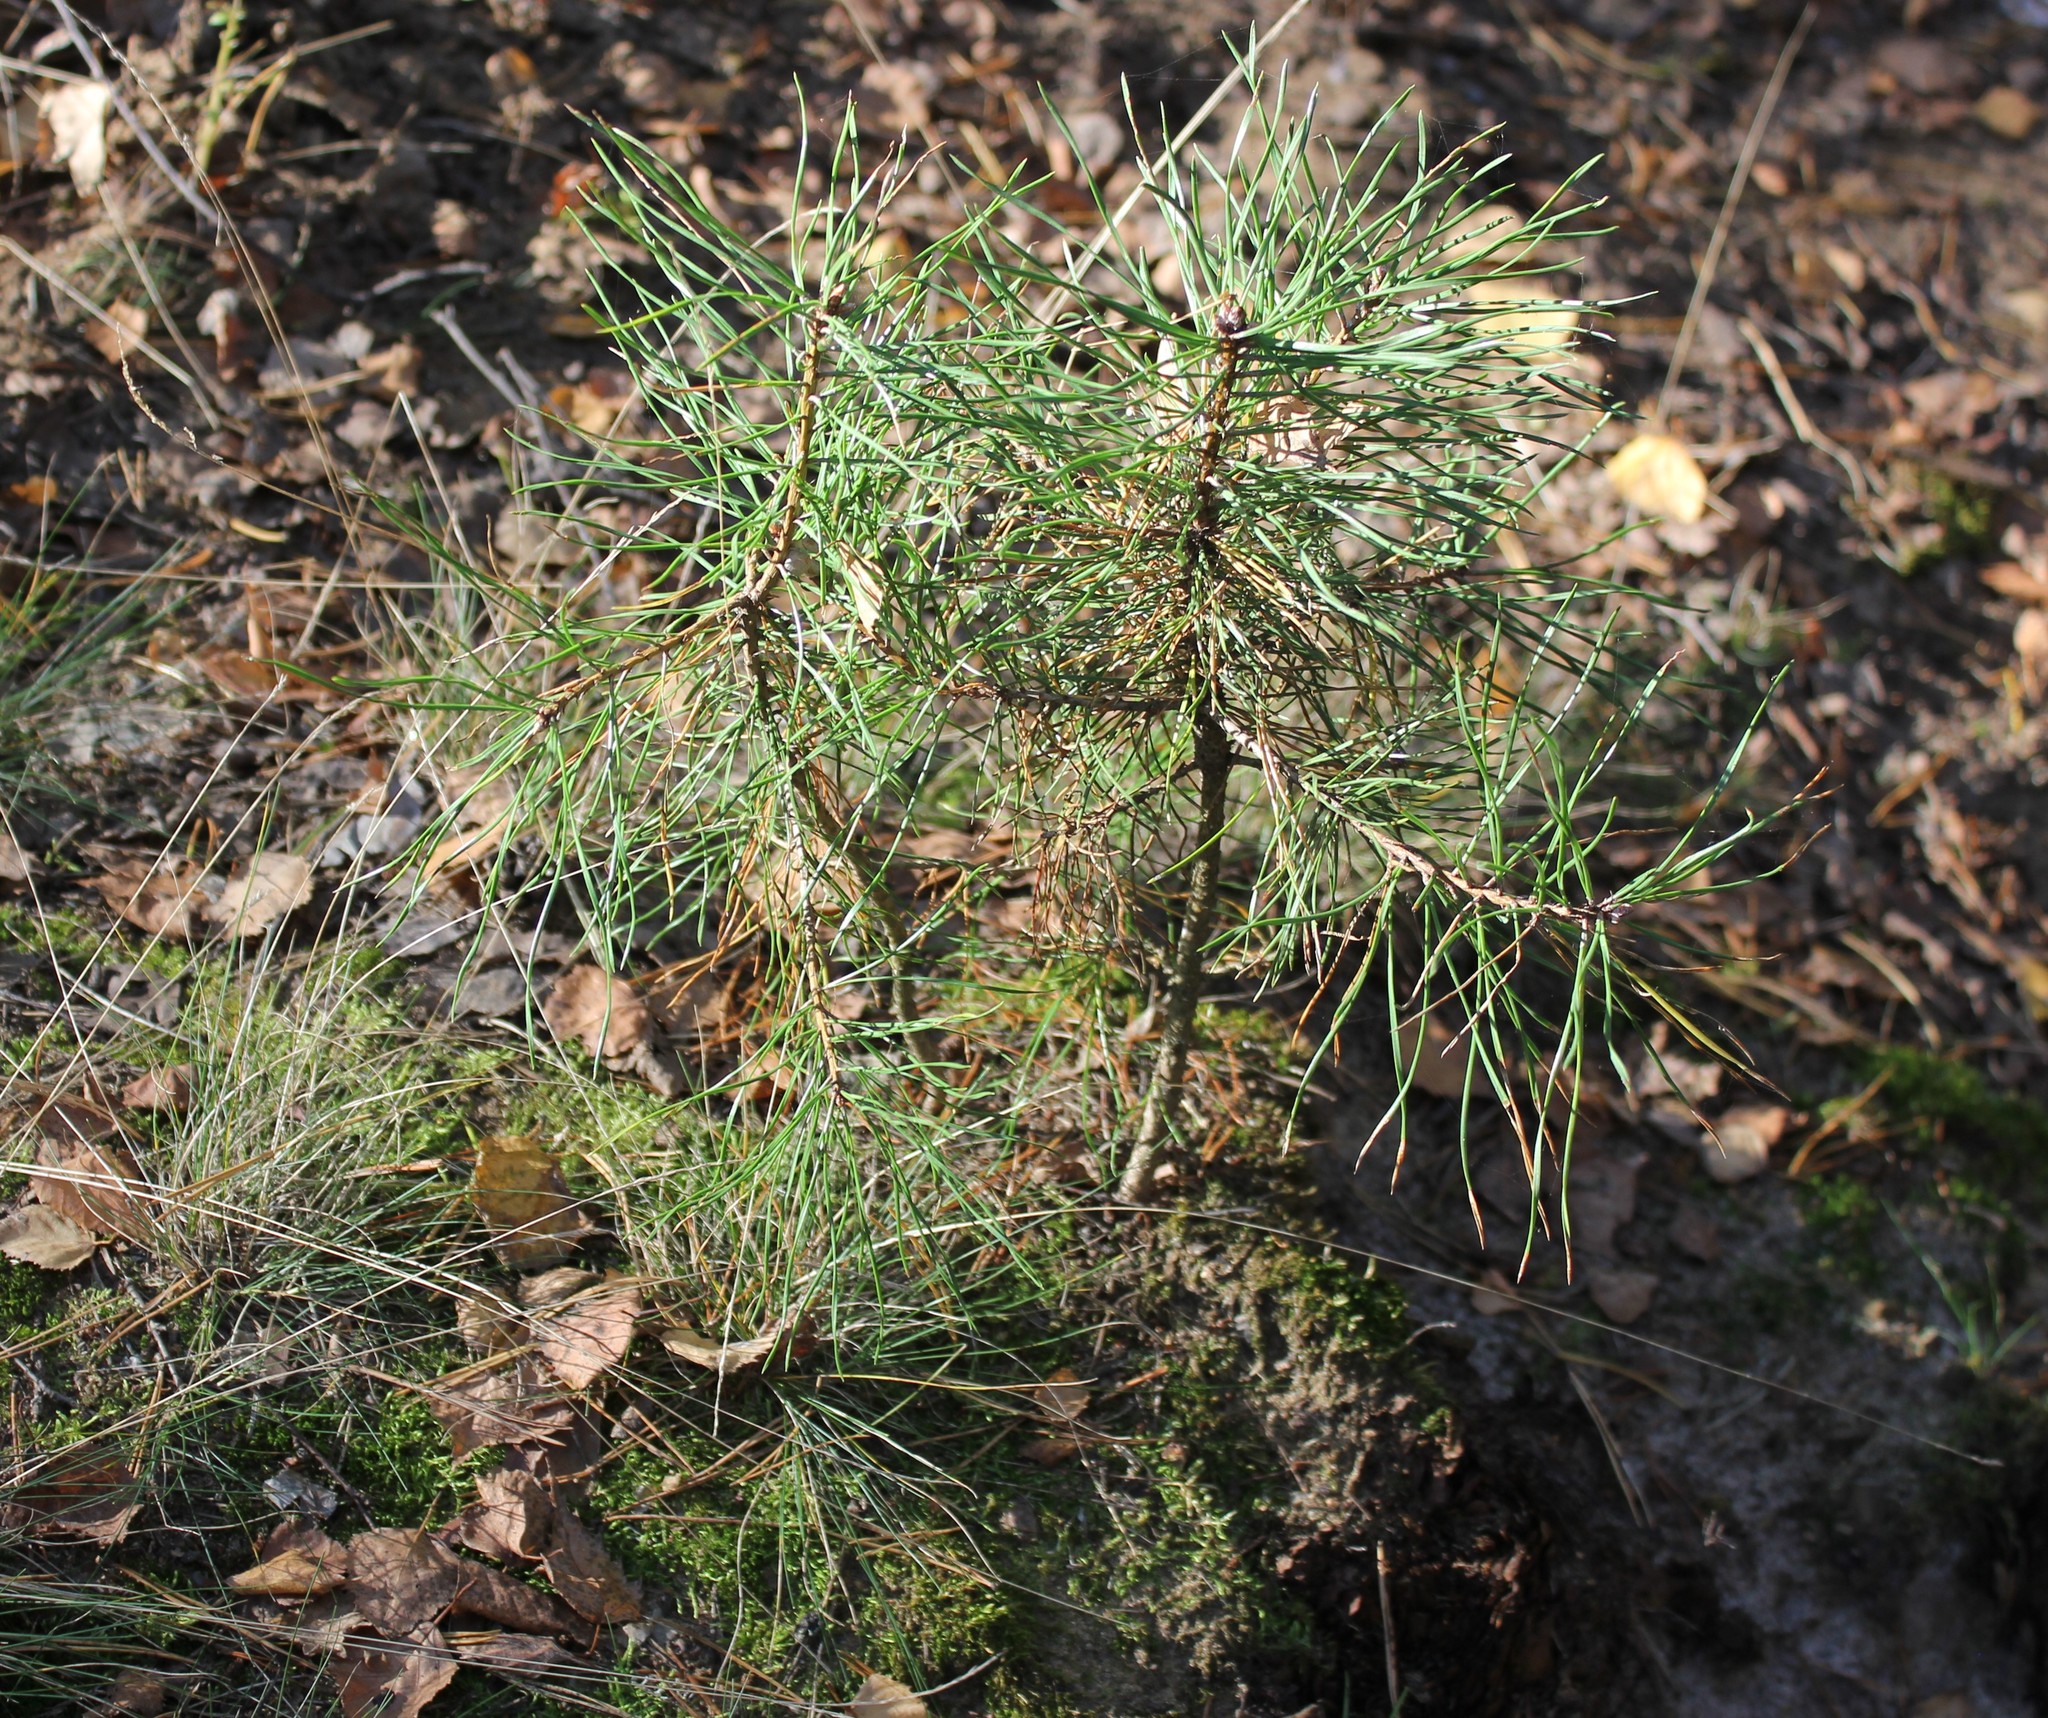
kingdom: Plantae
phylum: Tracheophyta
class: Pinopsida
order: Pinales
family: Pinaceae
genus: Pinus
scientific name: Pinus sylvestris
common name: Scots pine
